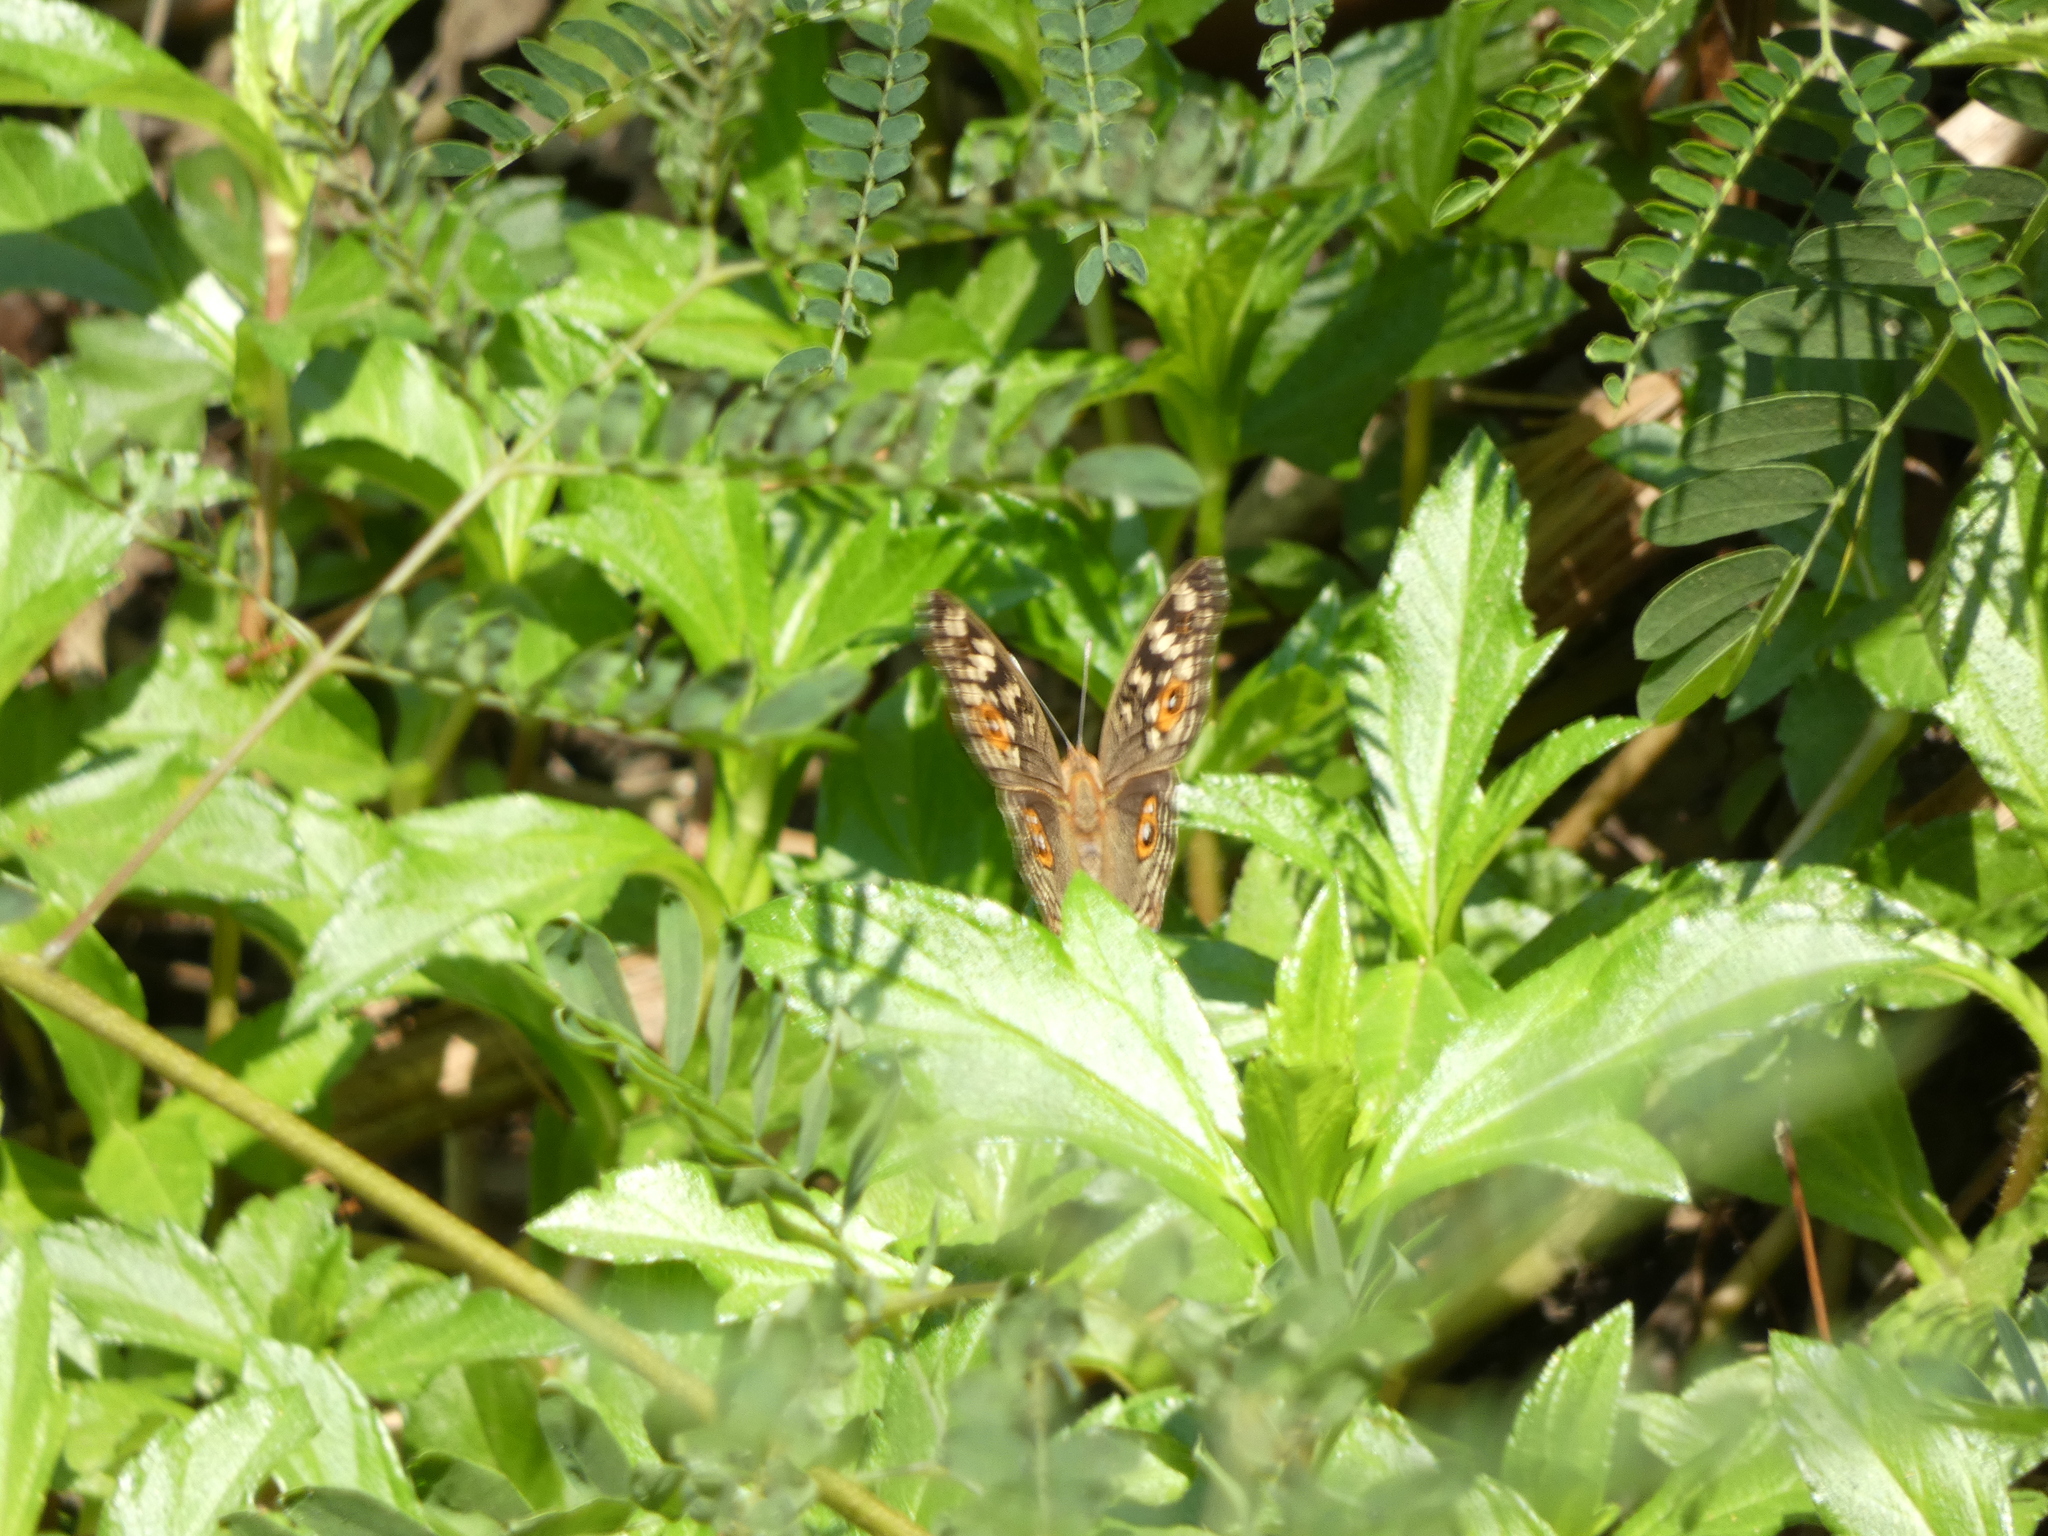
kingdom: Animalia
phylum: Arthropoda
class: Insecta
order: Lepidoptera
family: Nymphalidae
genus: Junonia
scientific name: Junonia lemonias
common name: Lemon pansy
